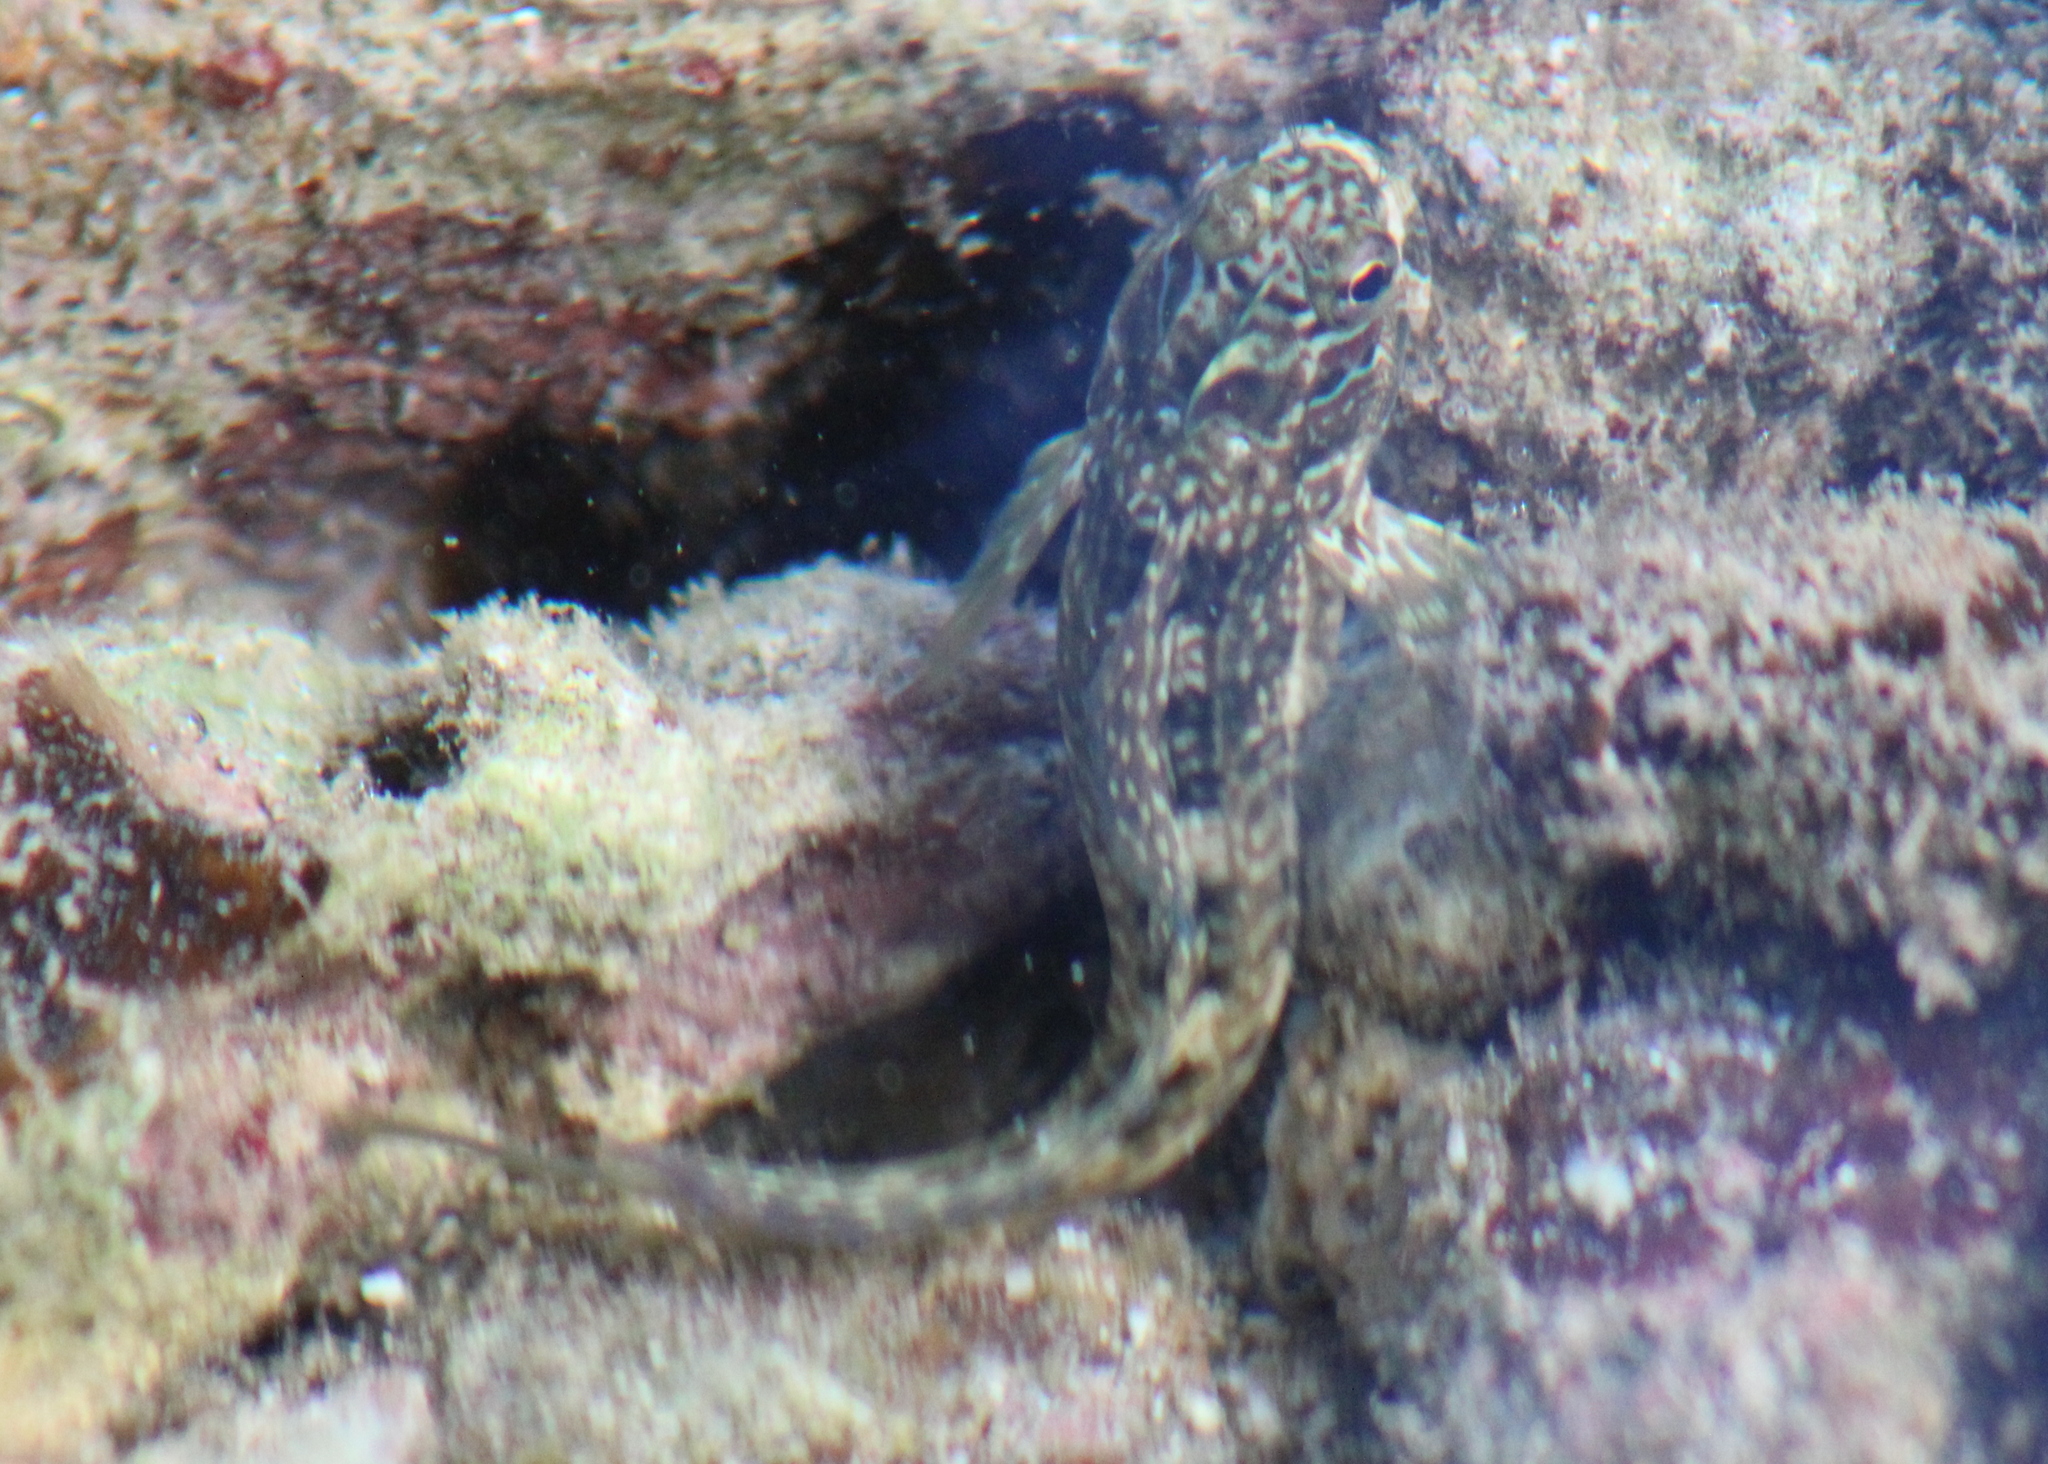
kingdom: Animalia
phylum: Chordata
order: Perciformes
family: Blenniidae
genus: Istiblennius
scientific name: Istiblennius edentulus
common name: Rippled rockskipper
